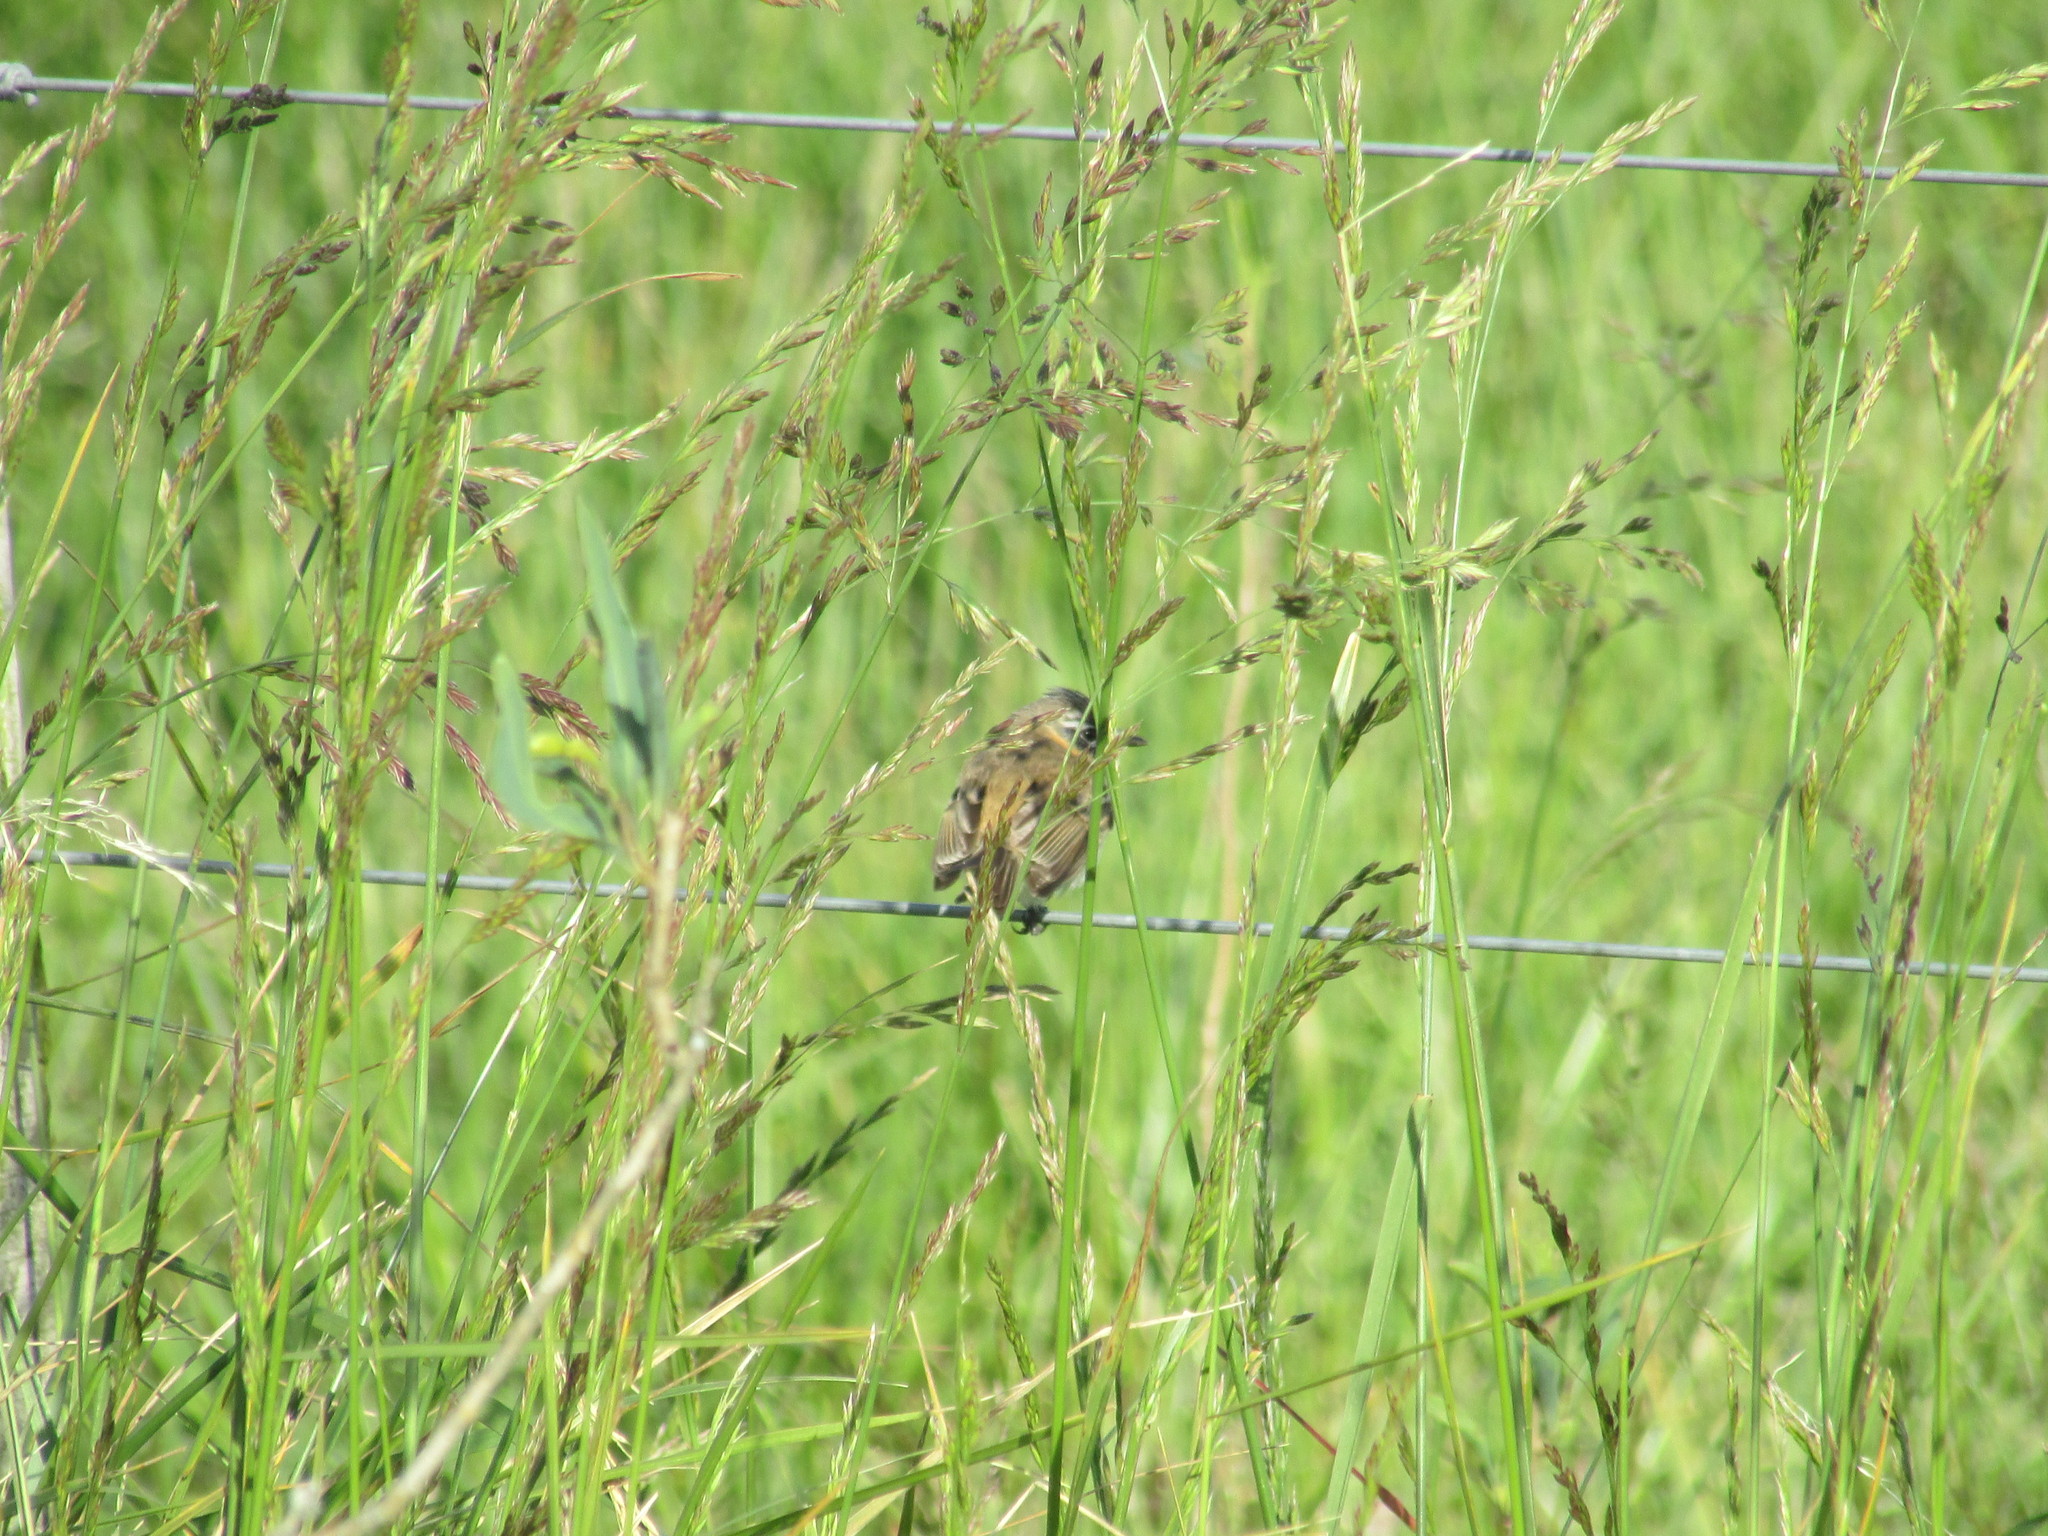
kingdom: Animalia
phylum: Chordata
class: Aves
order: Passeriformes
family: Tyrannidae
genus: Polystictus
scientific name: Polystictus pectoralis
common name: Bearded tachuri
